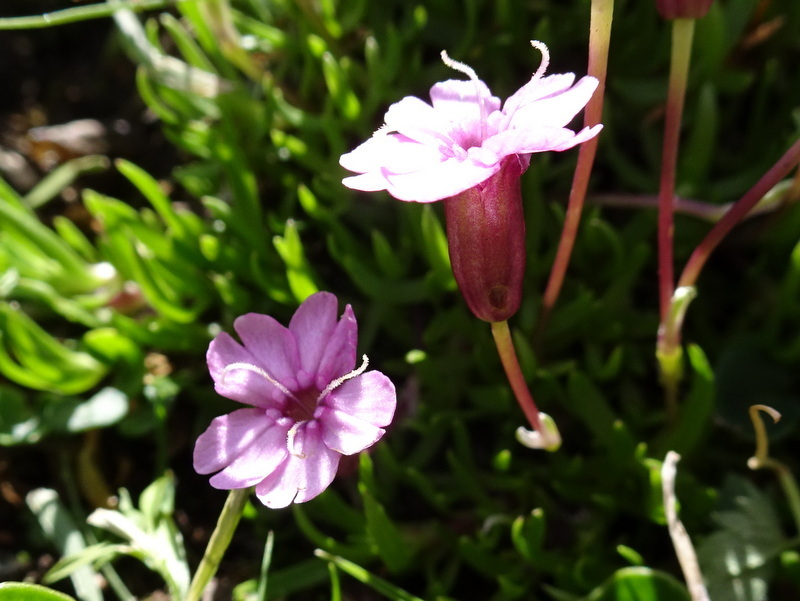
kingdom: Plantae
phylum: Tracheophyta
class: Magnoliopsida
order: Caryophyllales
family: Caryophyllaceae
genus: Silene
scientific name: Silene acaulis
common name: Moss campion
